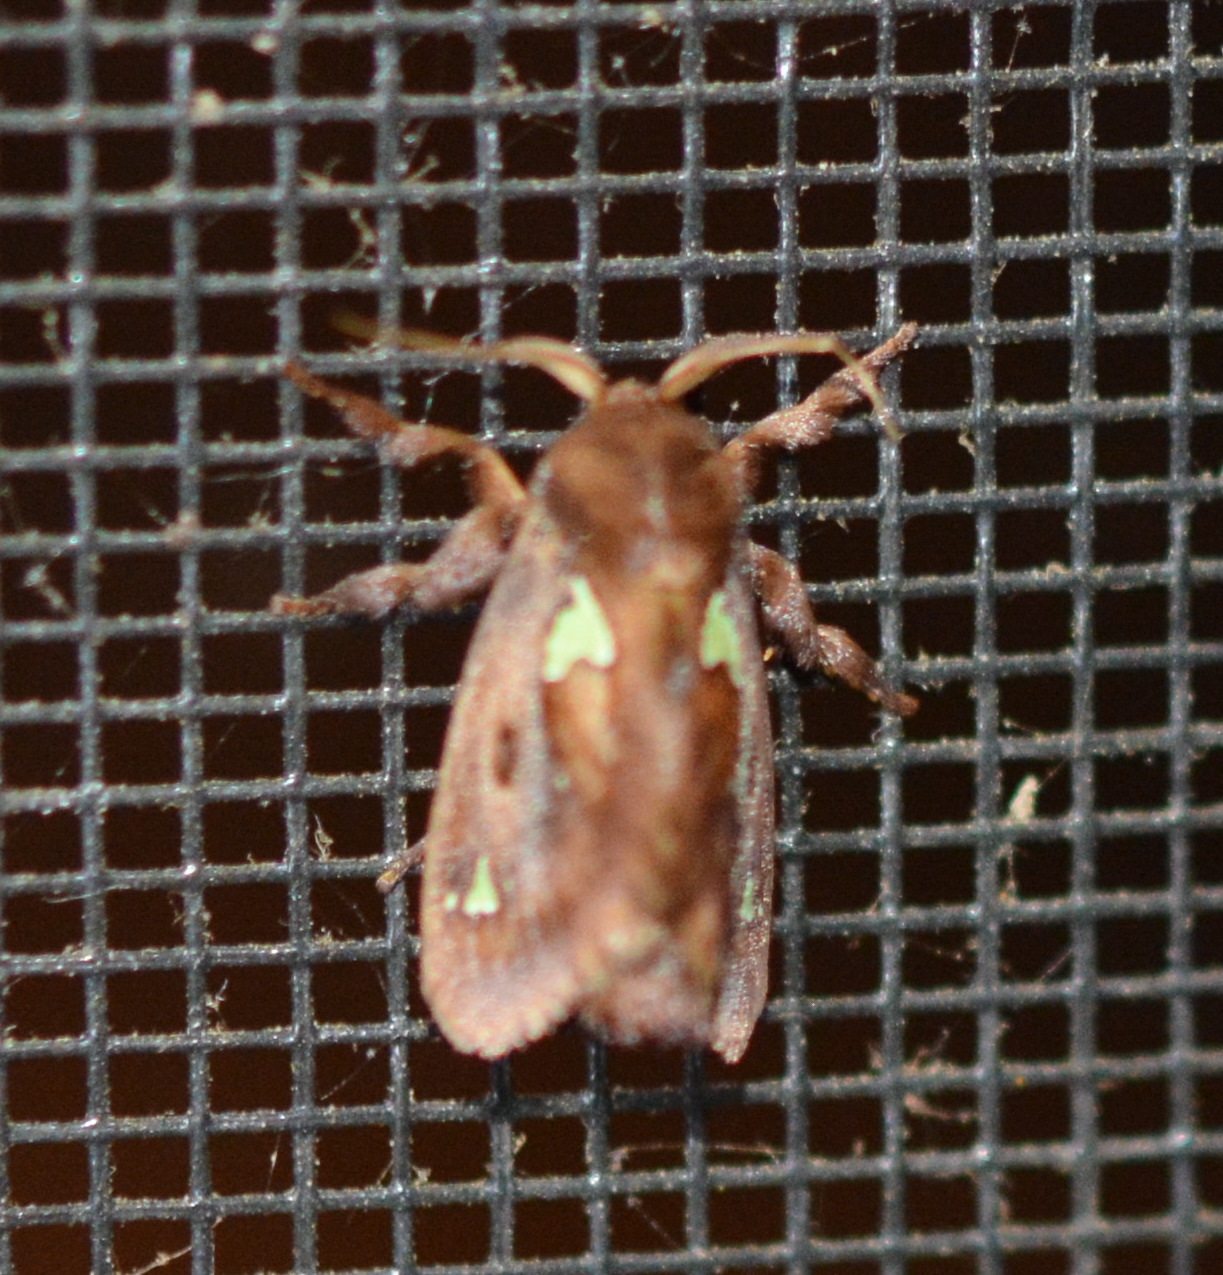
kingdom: Animalia
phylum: Arthropoda
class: Insecta
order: Lepidoptera
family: Limacodidae
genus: Euclea
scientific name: Euclea delphinii
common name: Spiny oak-slug moth
